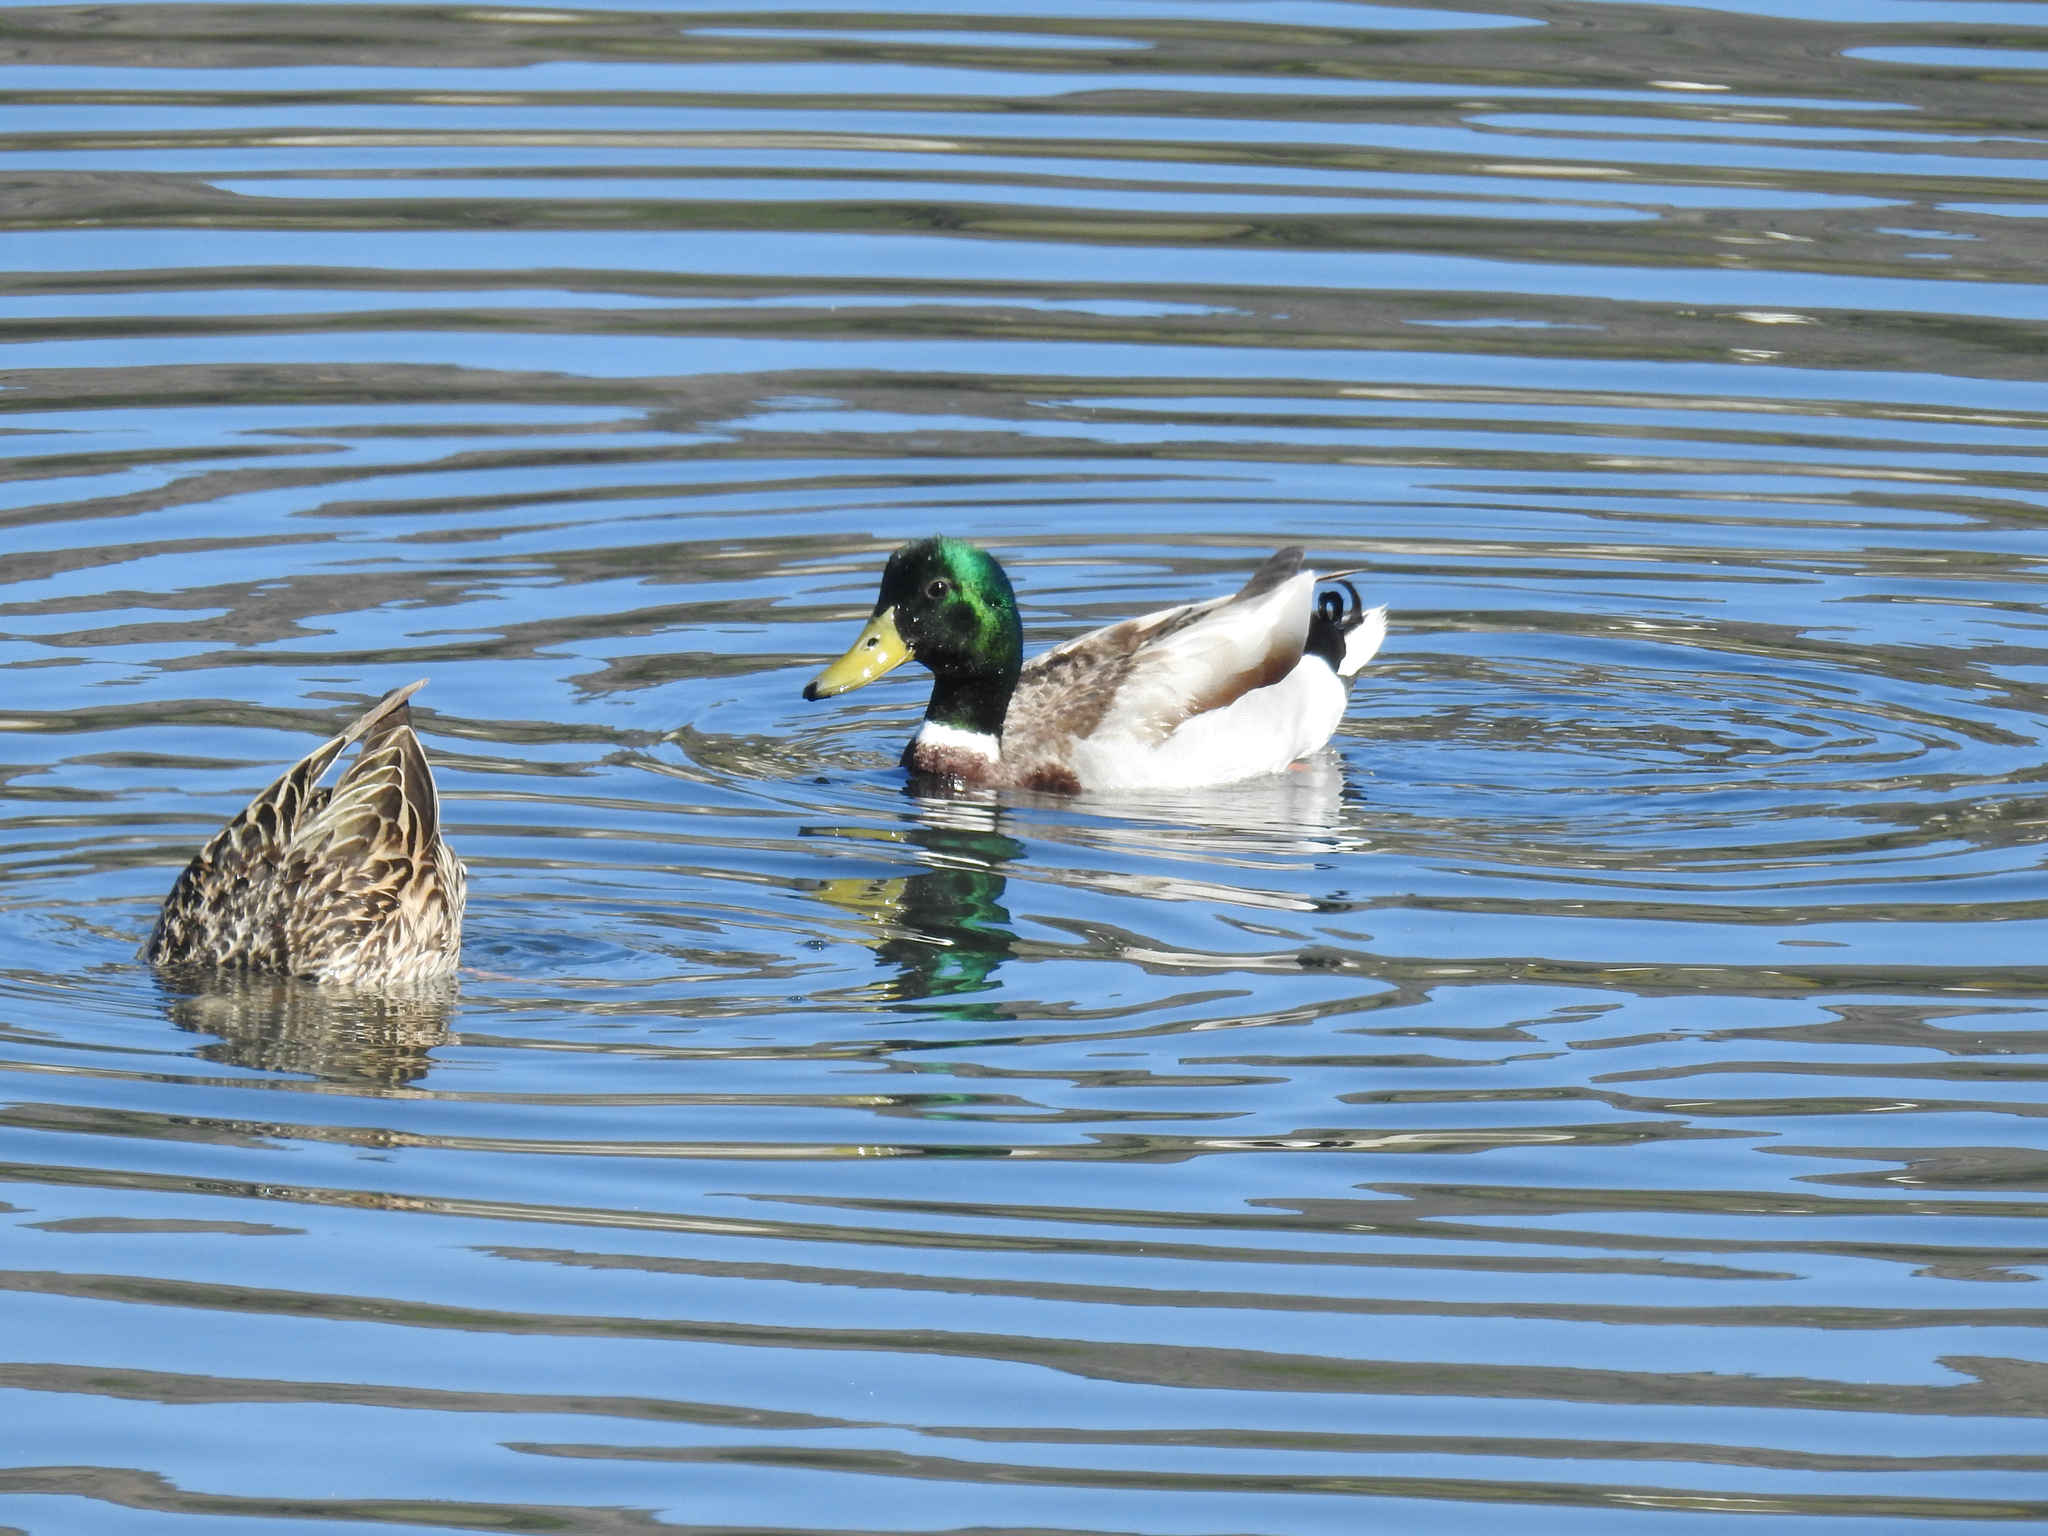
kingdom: Animalia
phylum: Chordata
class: Aves
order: Anseriformes
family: Anatidae
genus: Anas
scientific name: Anas platyrhynchos
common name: Mallard
